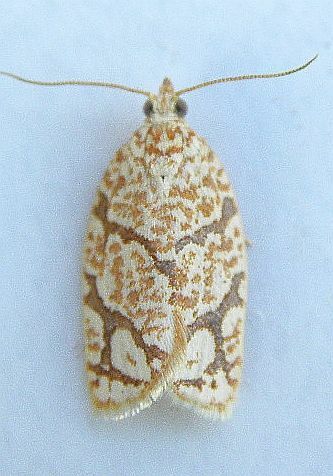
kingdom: Animalia
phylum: Arthropoda
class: Insecta
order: Lepidoptera
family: Tortricidae
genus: Argyrotaenia
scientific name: Argyrotaenia quercifoliana
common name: Yellow-winged oak leafroller moth
